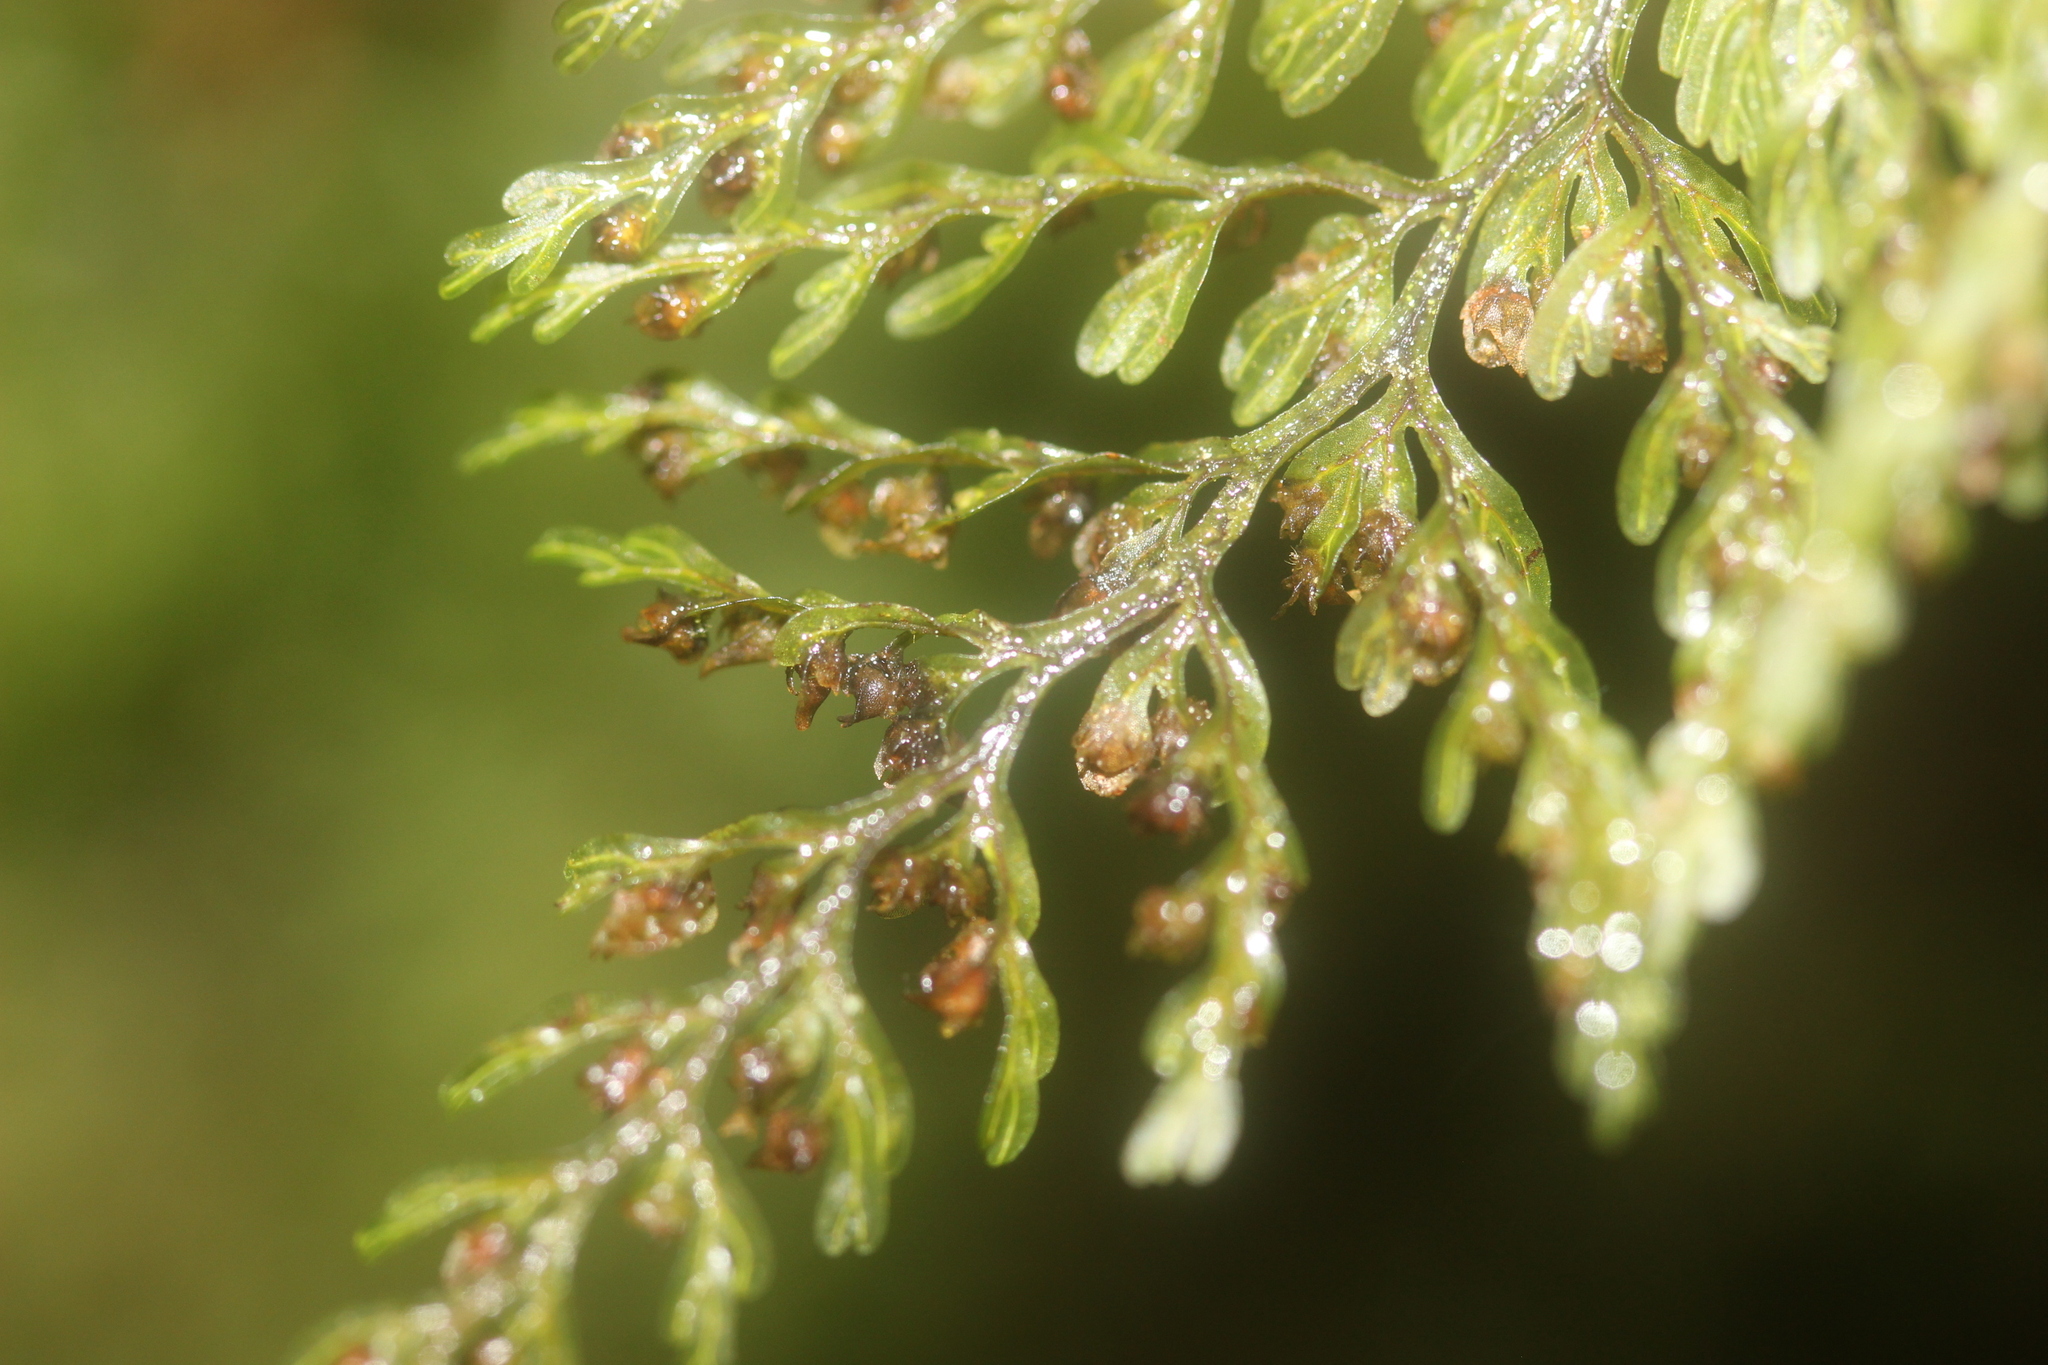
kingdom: Plantae
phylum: Tracheophyta
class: Polypodiopsida
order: Hymenophyllales
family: Hymenophyllaceae
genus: Hymenophyllum
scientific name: Hymenophyllum sanguinolentum
